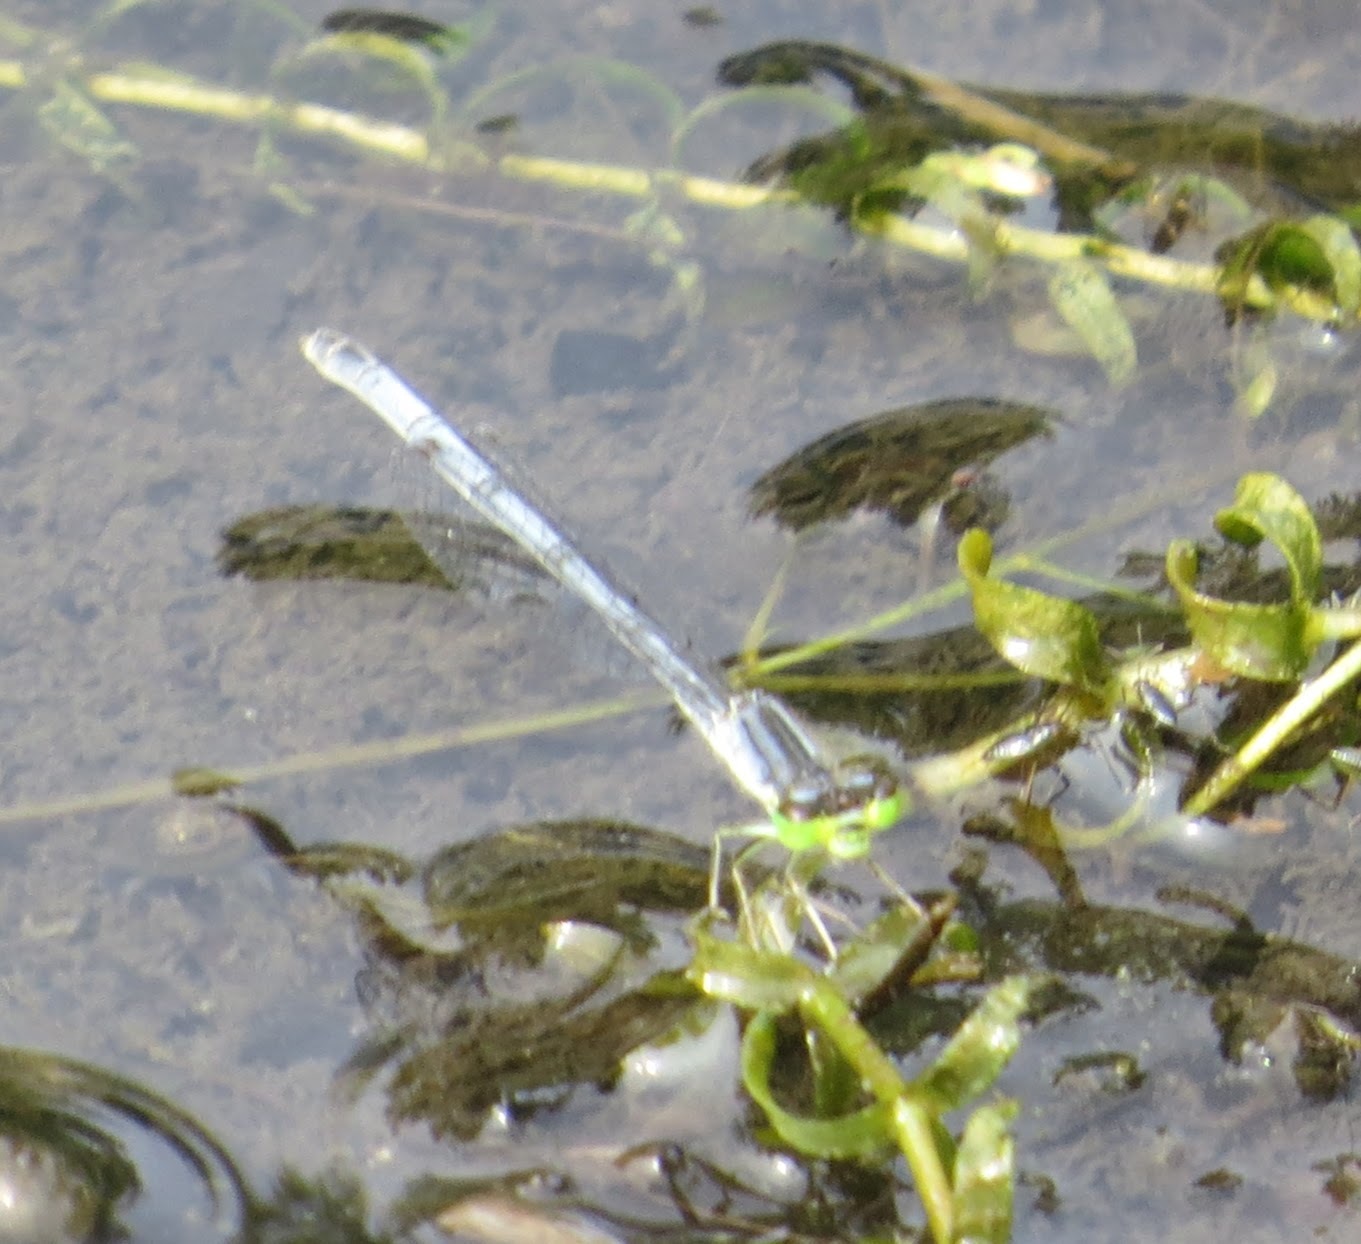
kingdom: Animalia
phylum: Arthropoda
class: Insecta
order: Odonata
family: Coenagrionidae
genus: Ischnura
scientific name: Ischnura verticalis
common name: Eastern forktail
